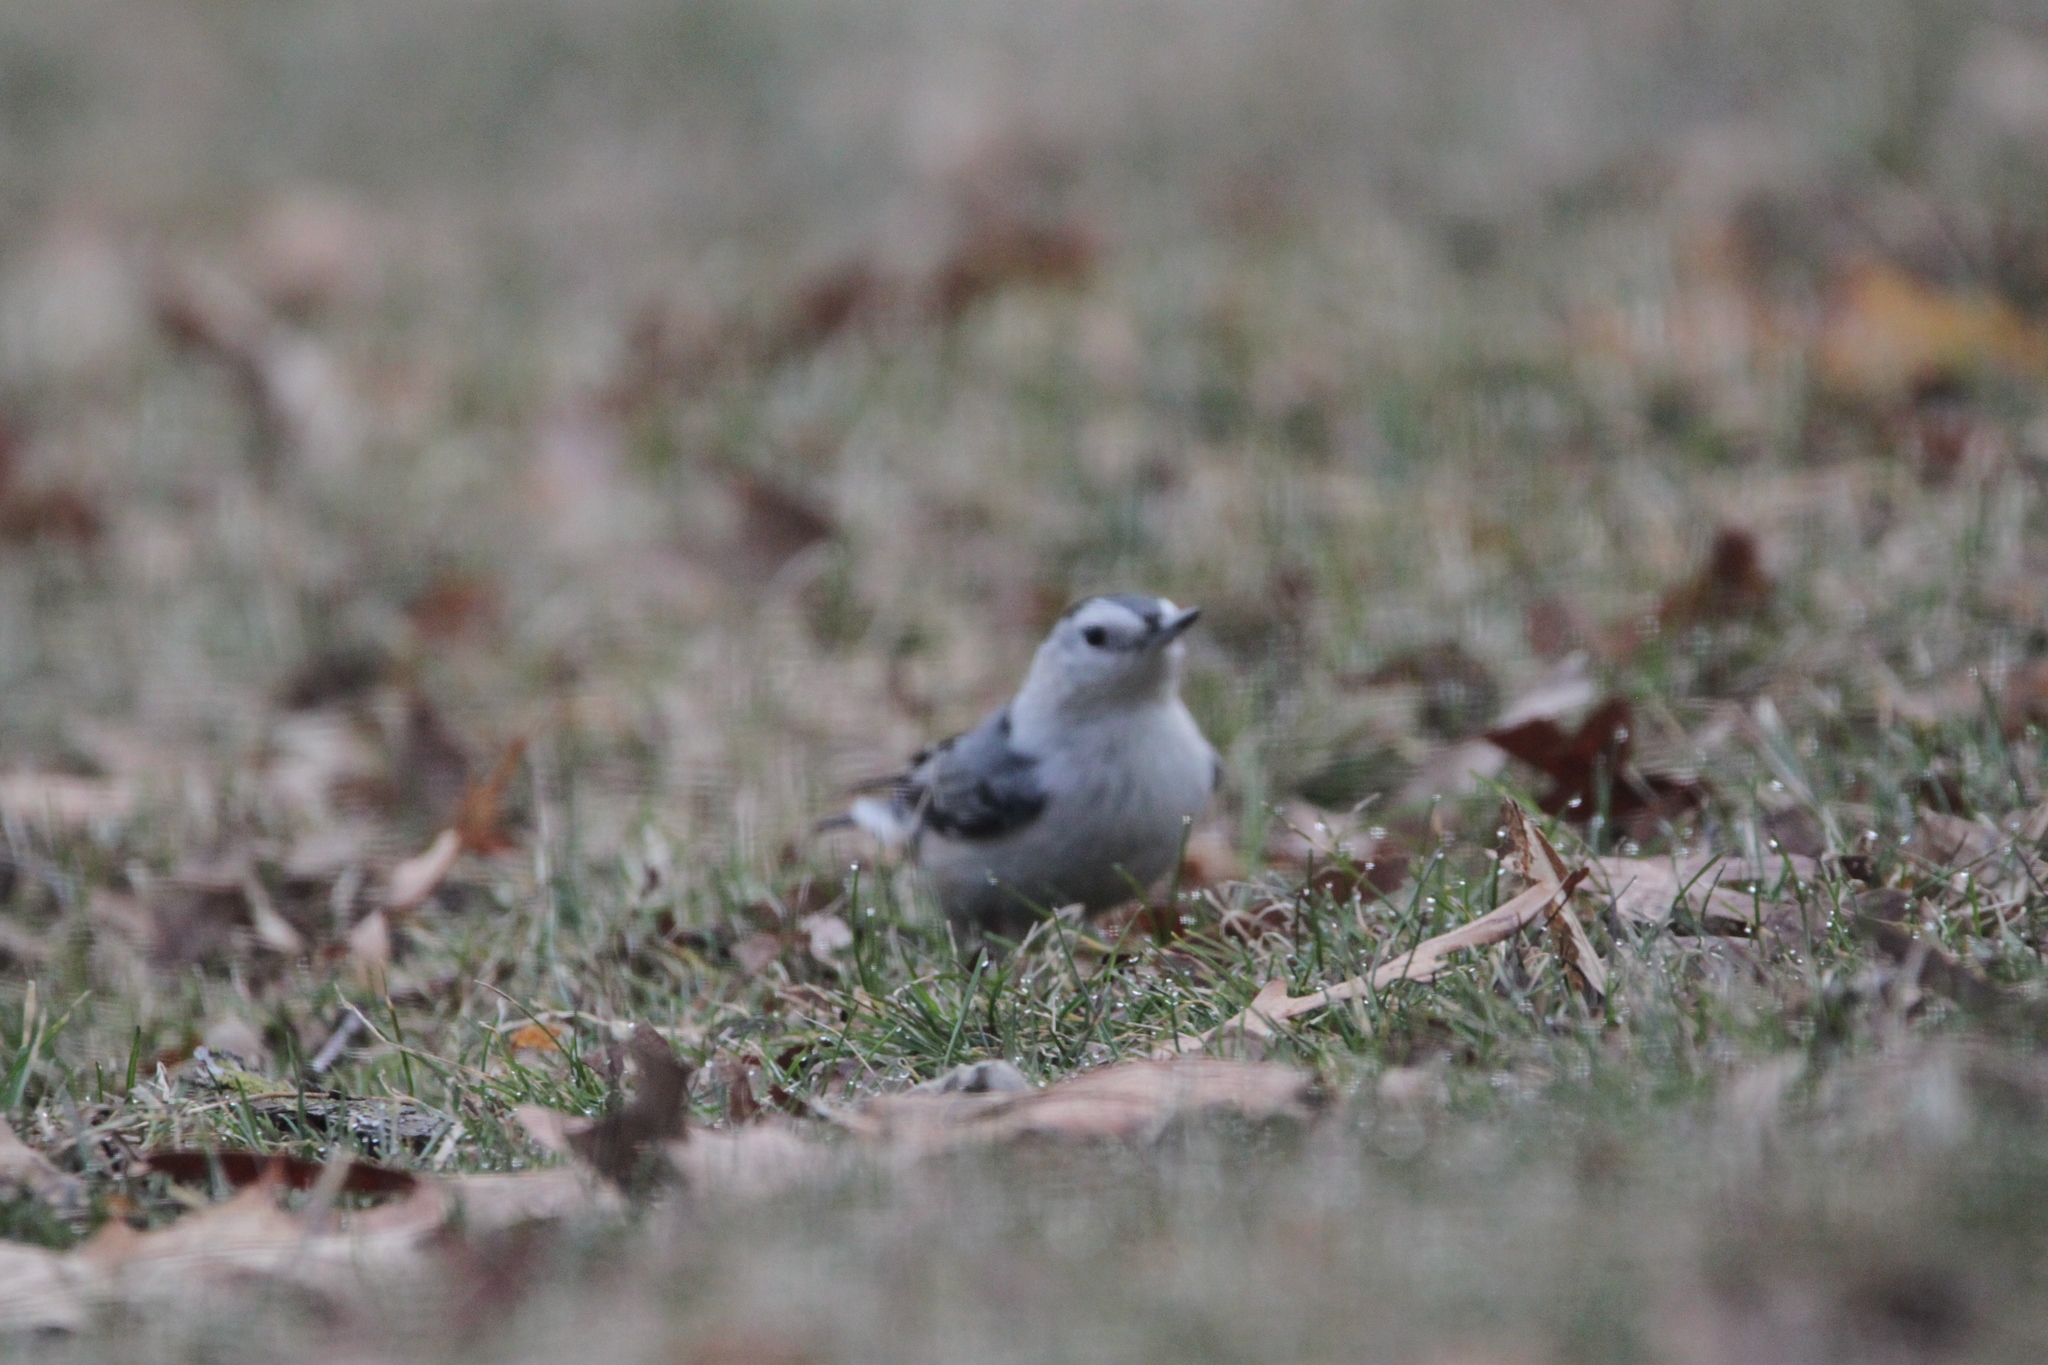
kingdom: Animalia
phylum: Chordata
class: Aves
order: Passeriformes
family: Sittidae
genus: Sitta
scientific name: Sitta carolinensis
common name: White-breasted nuthatch
